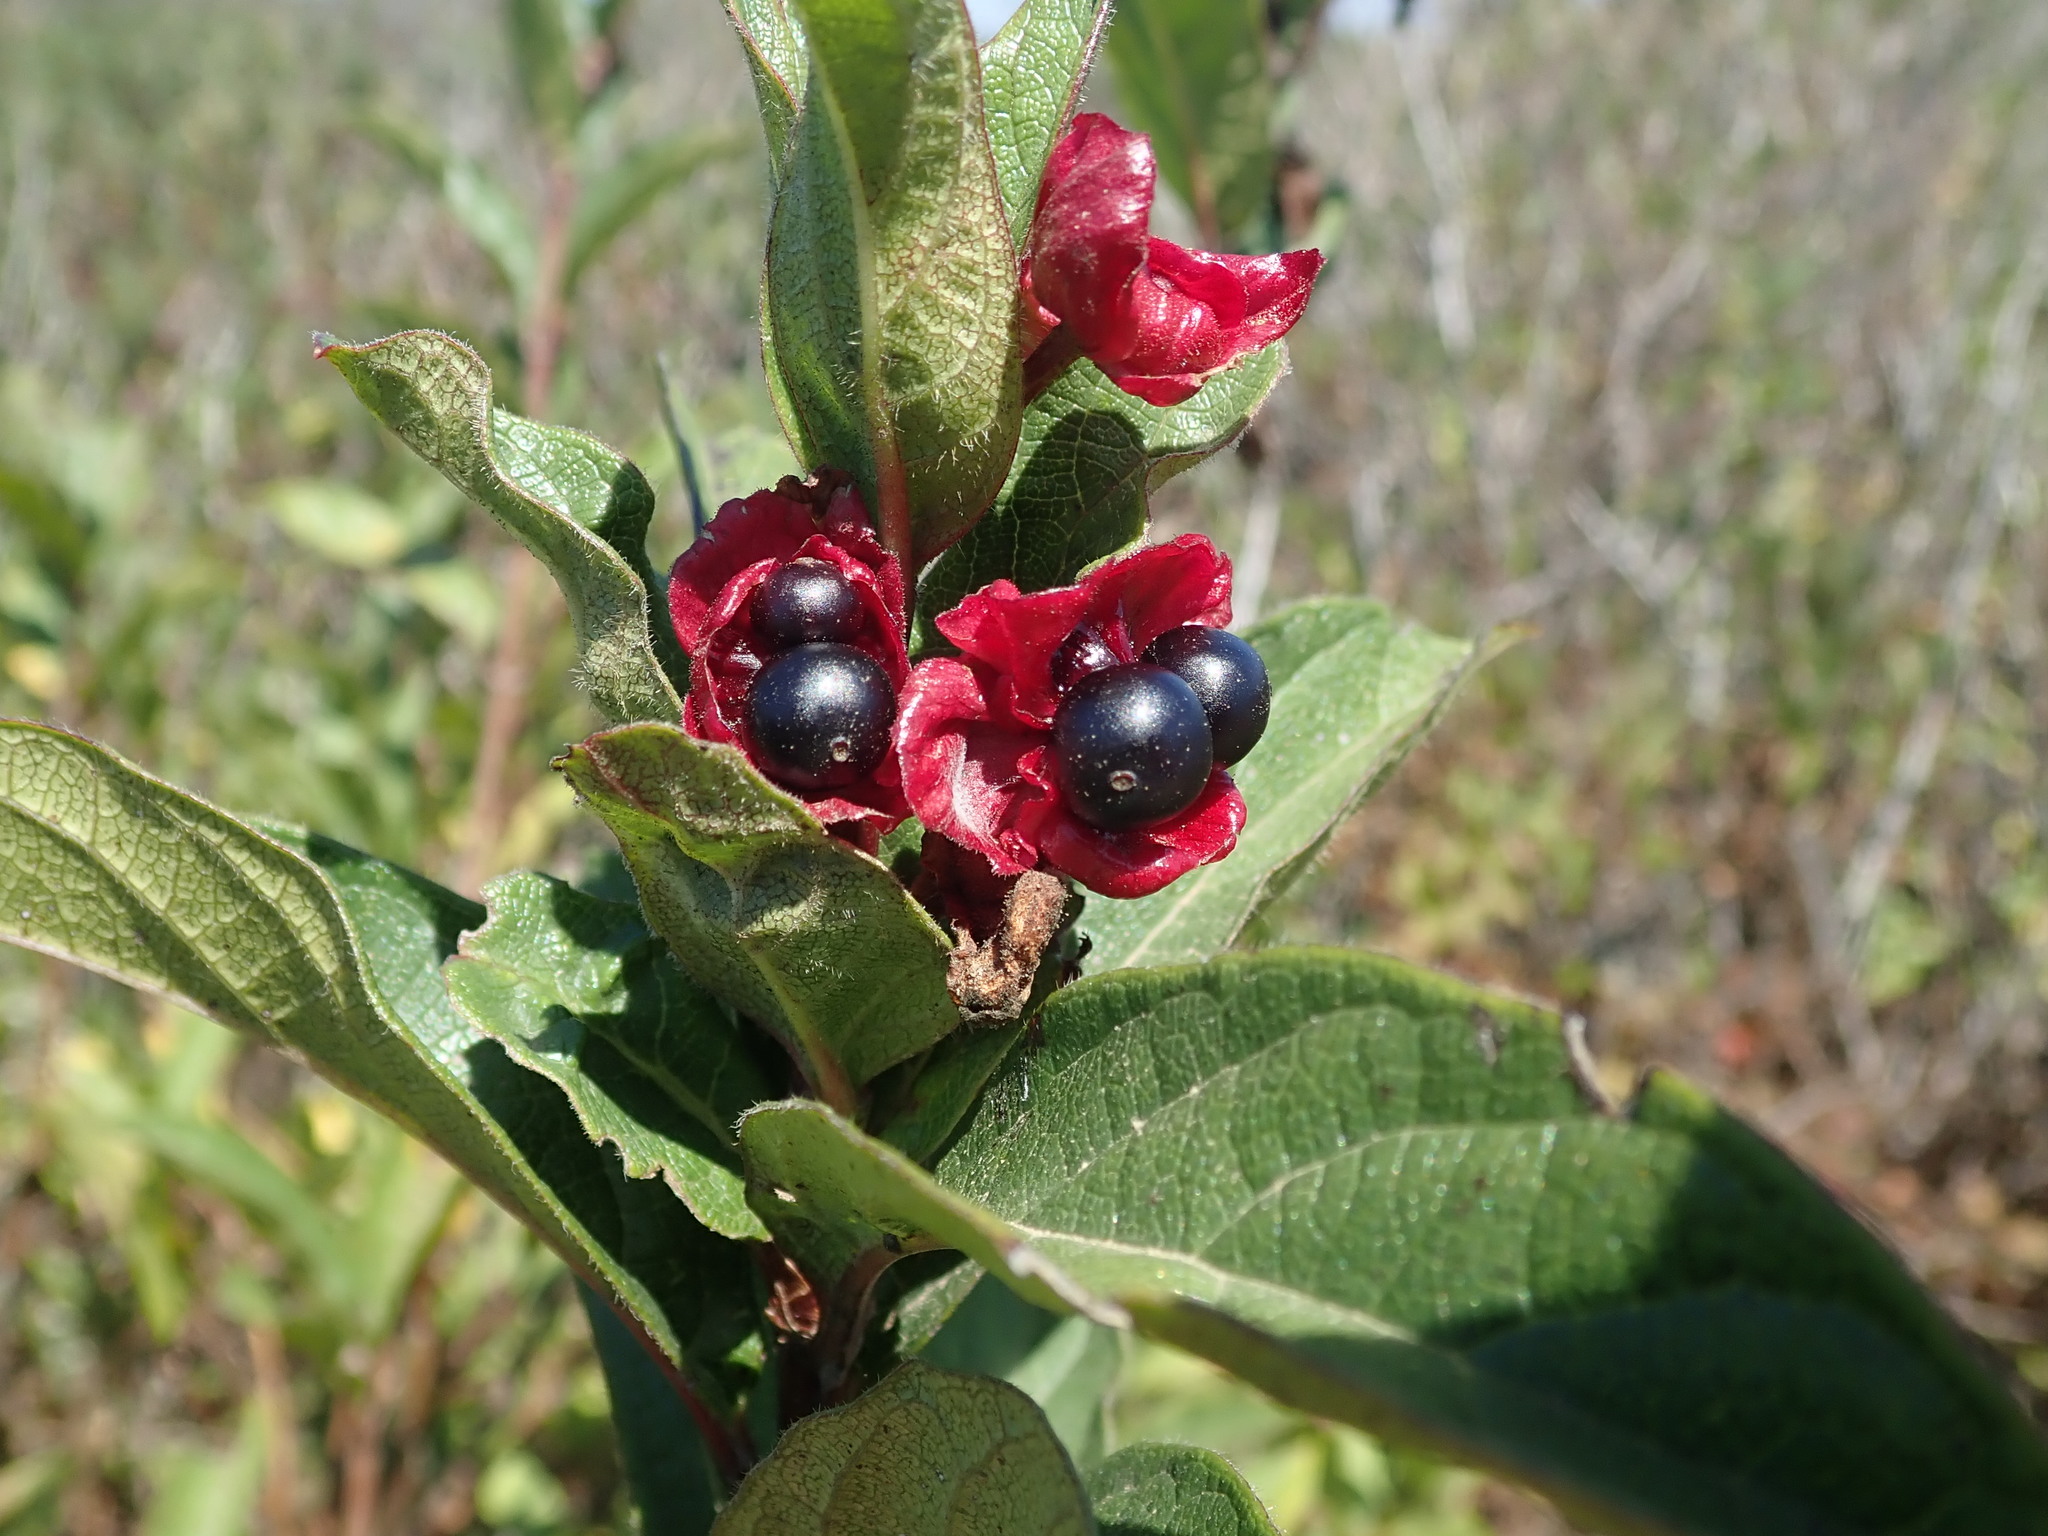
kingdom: Plantae
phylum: Tracheophyta
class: Magnoliopsida
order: Dipsacales
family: Caprifoliaceae
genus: Lonicera
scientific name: Lonicera involucrata
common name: Californian honeysuckle
